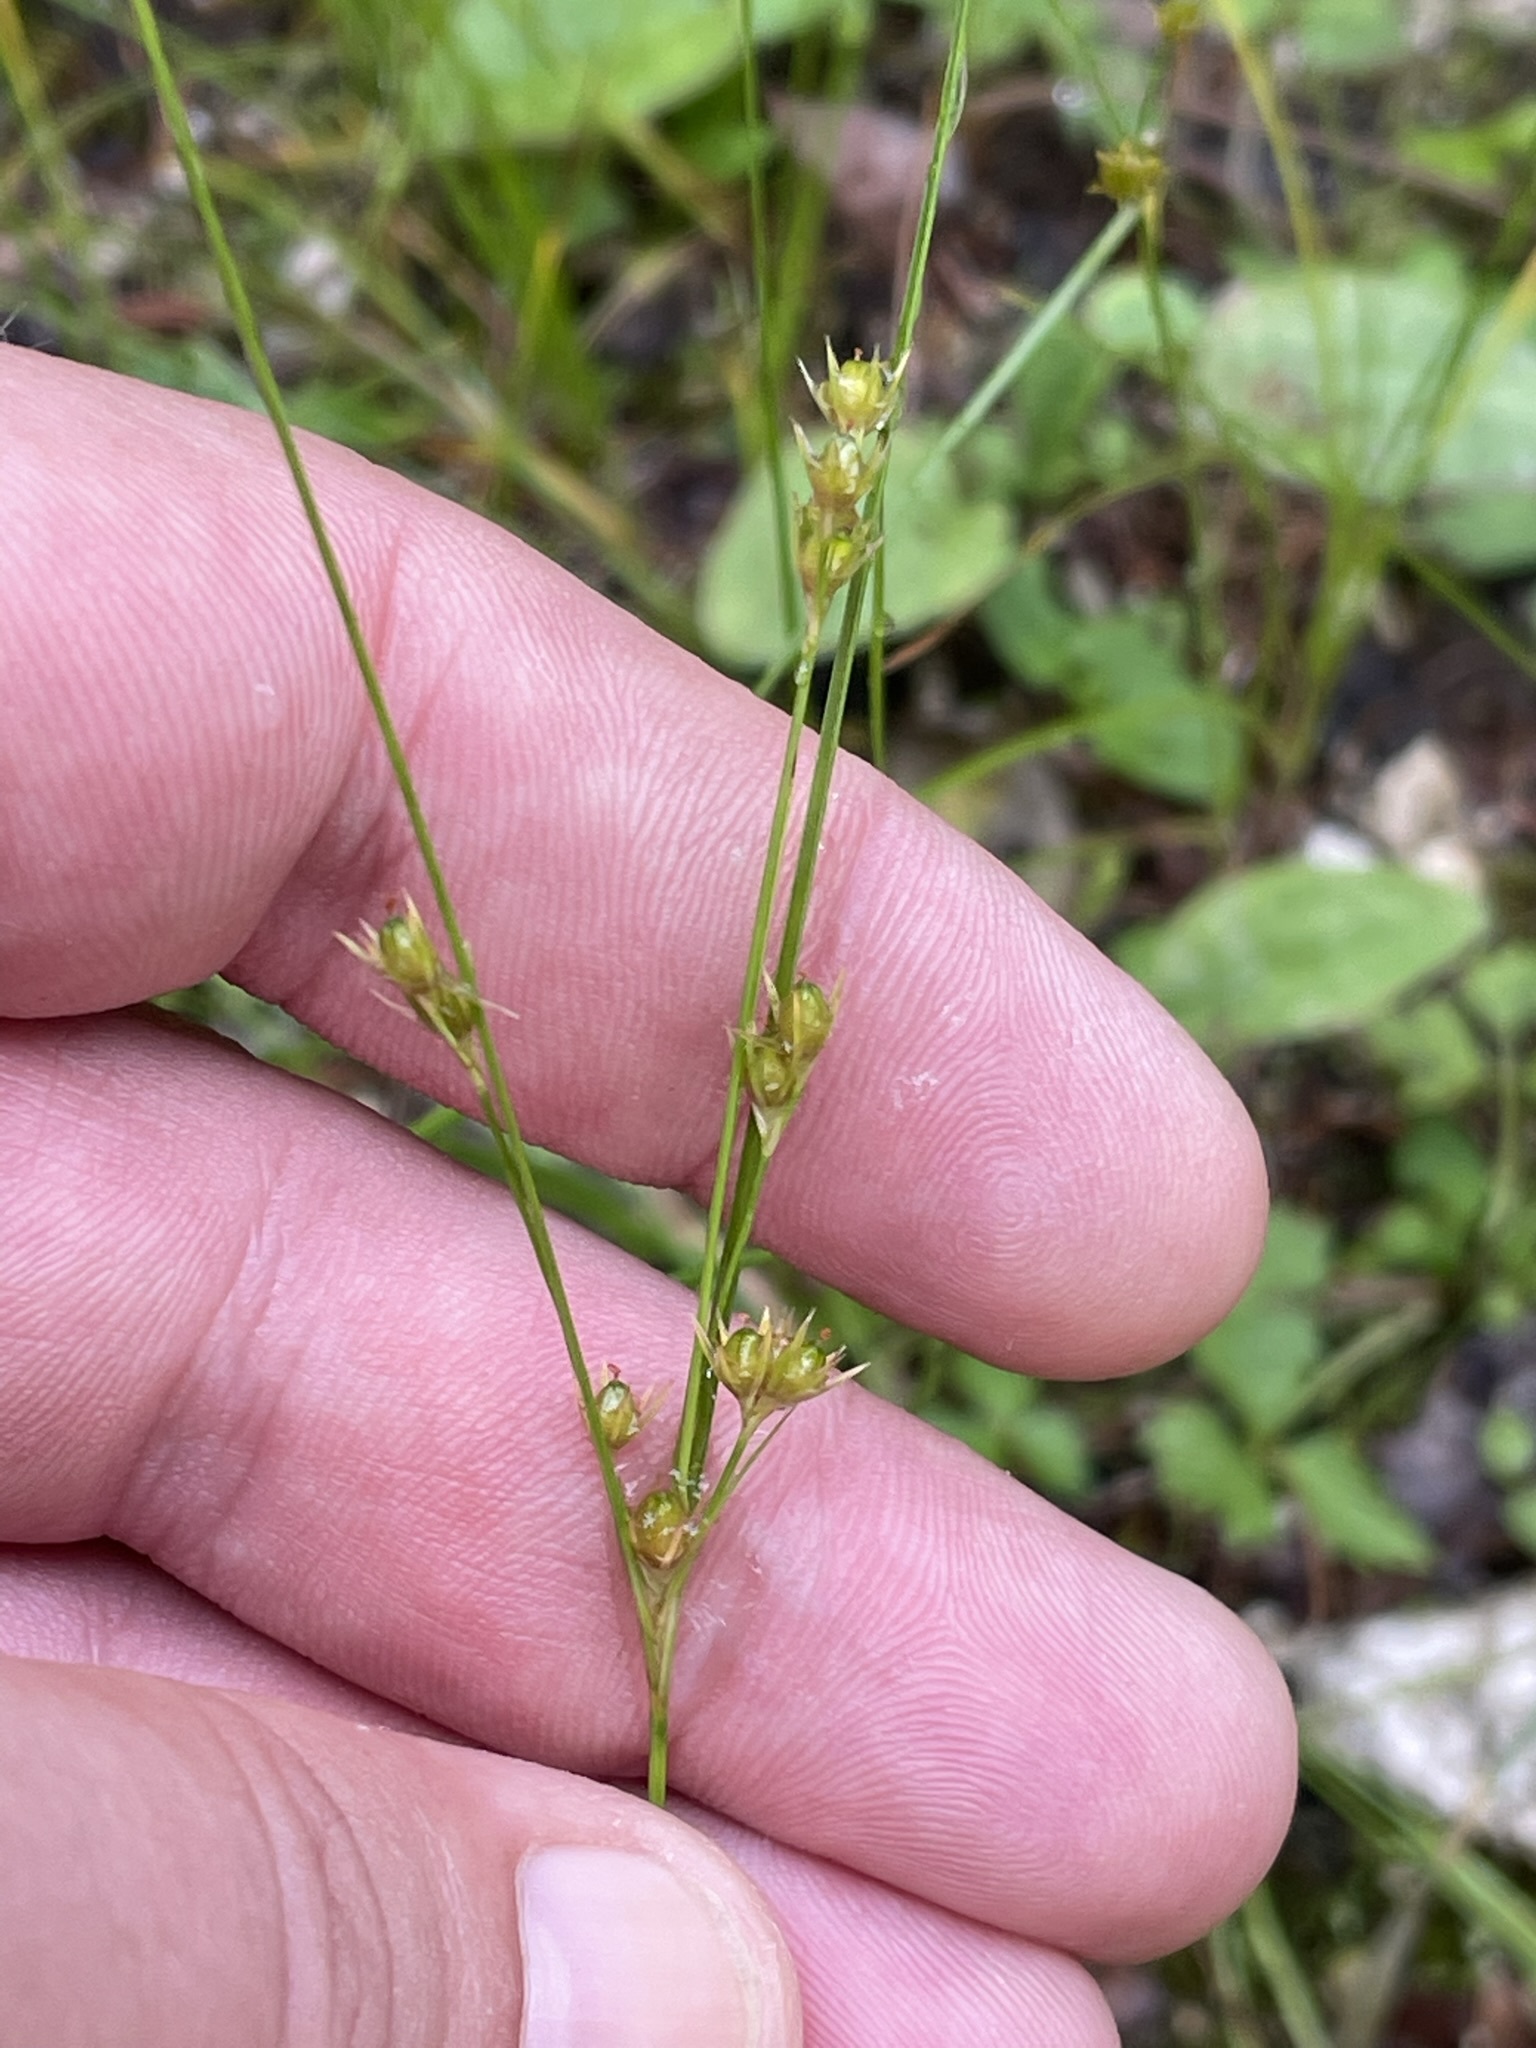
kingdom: Plantae
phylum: Tracheophyta
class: Liliopsida
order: Poales
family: Juncaceae
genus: Juncus
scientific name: Juncus tenuis
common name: Slender rush
